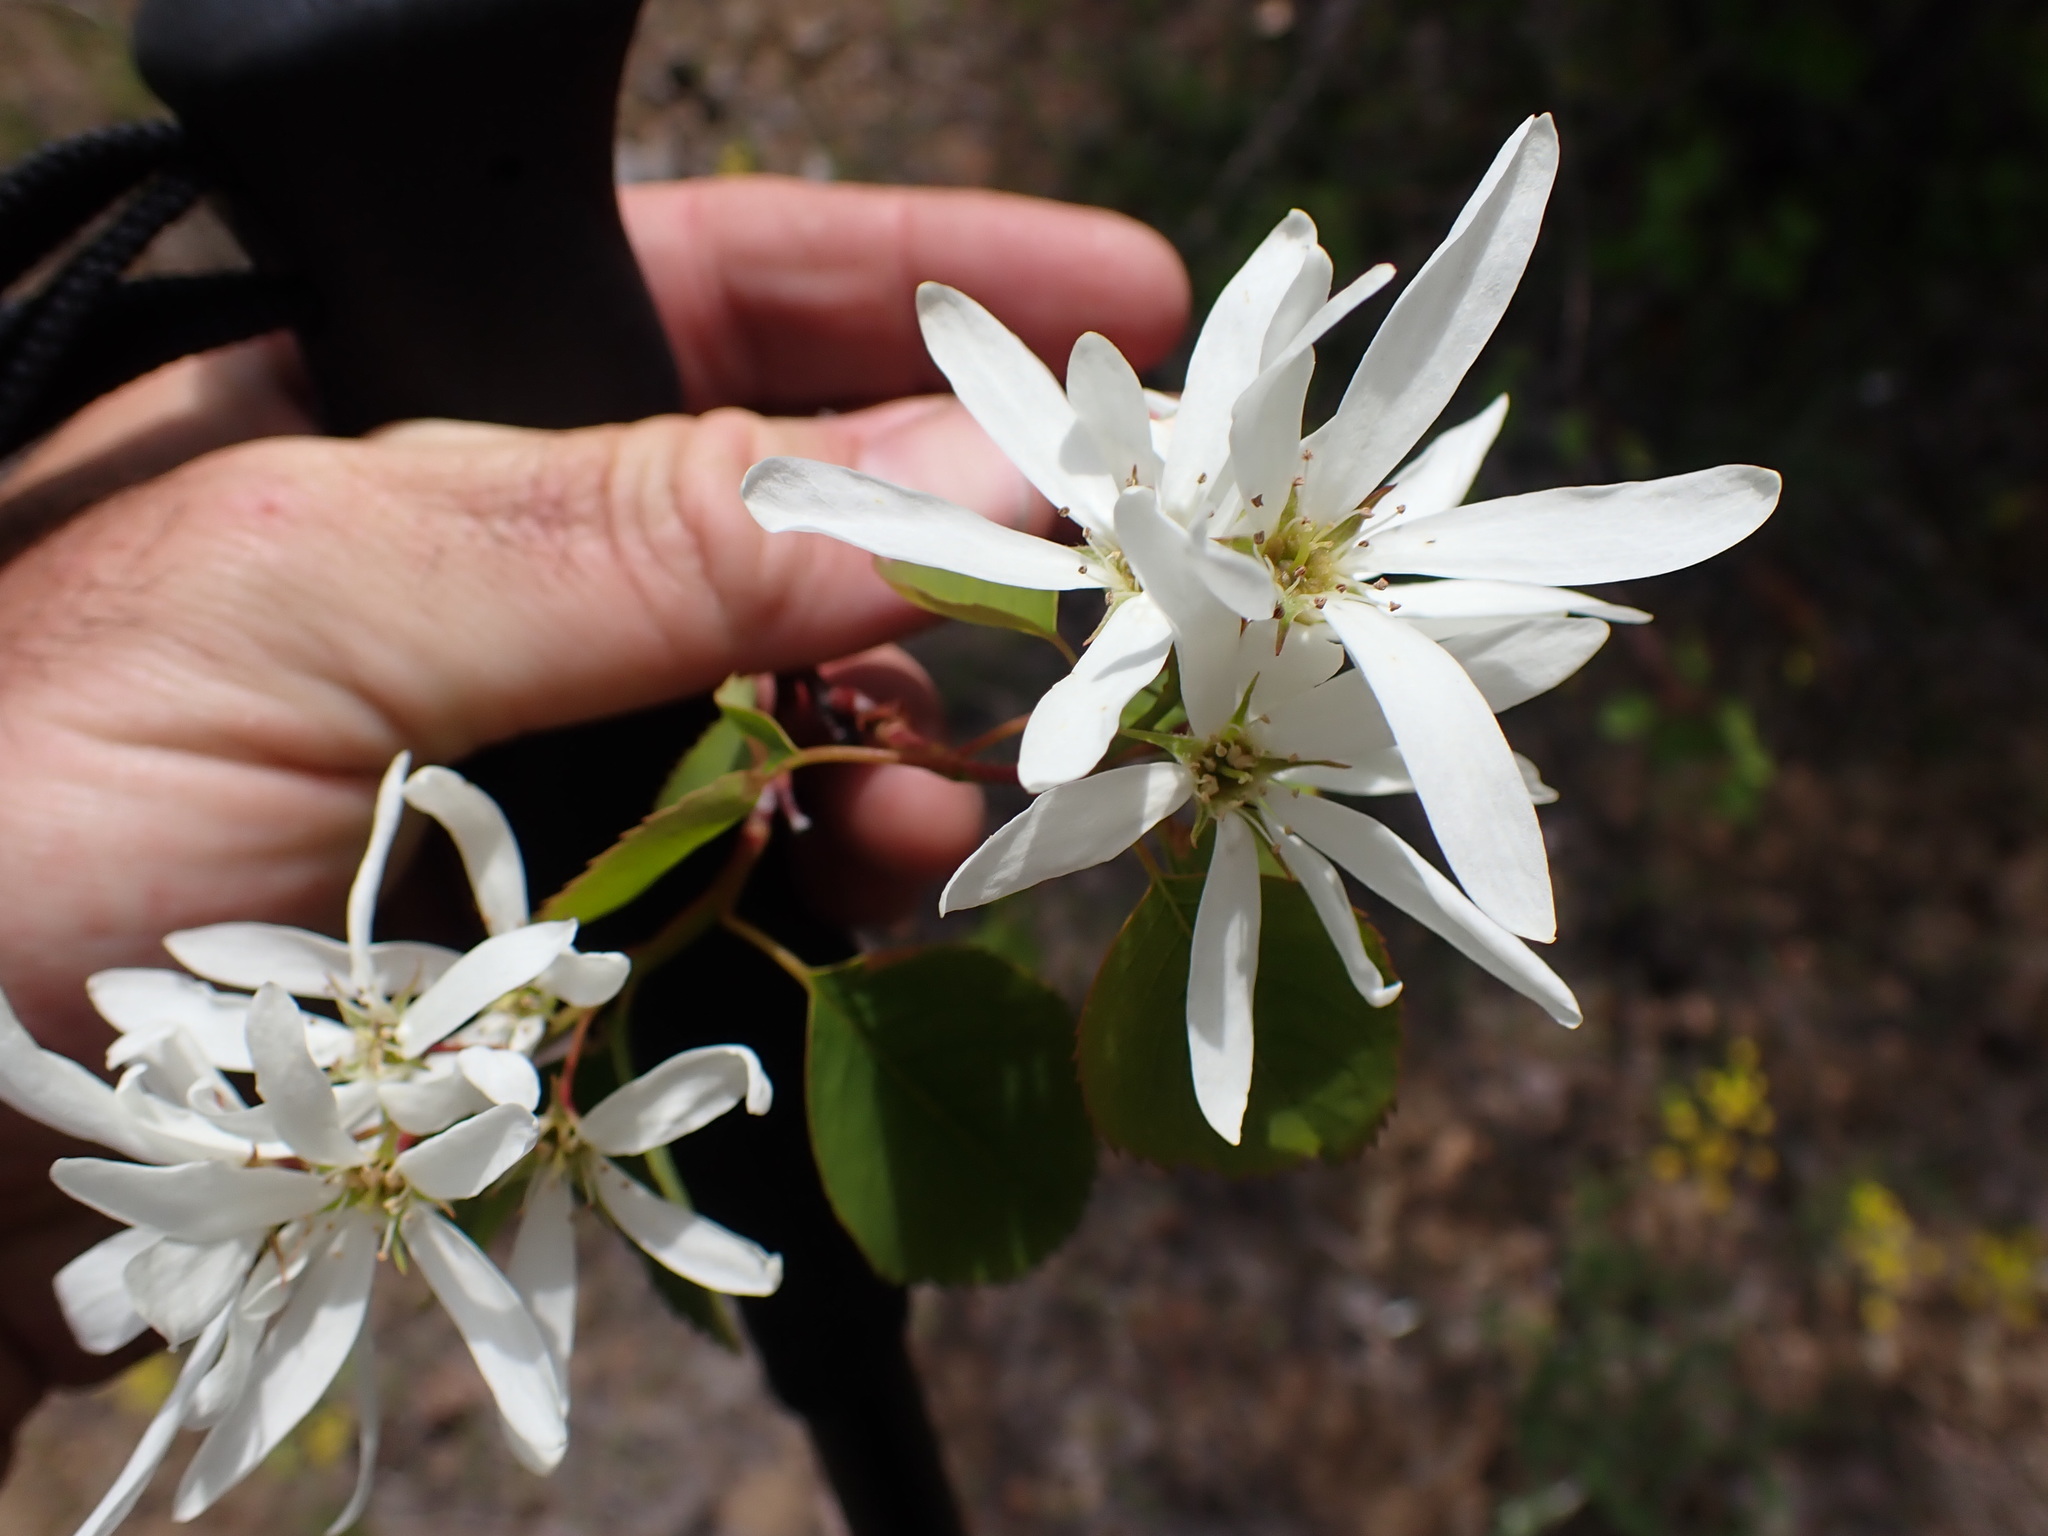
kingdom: Plantae
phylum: Tracheophyta
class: Magnoliopsida
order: Rosales
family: Rosaceae
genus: Amelanchier
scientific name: Amelanchier alnifolia
